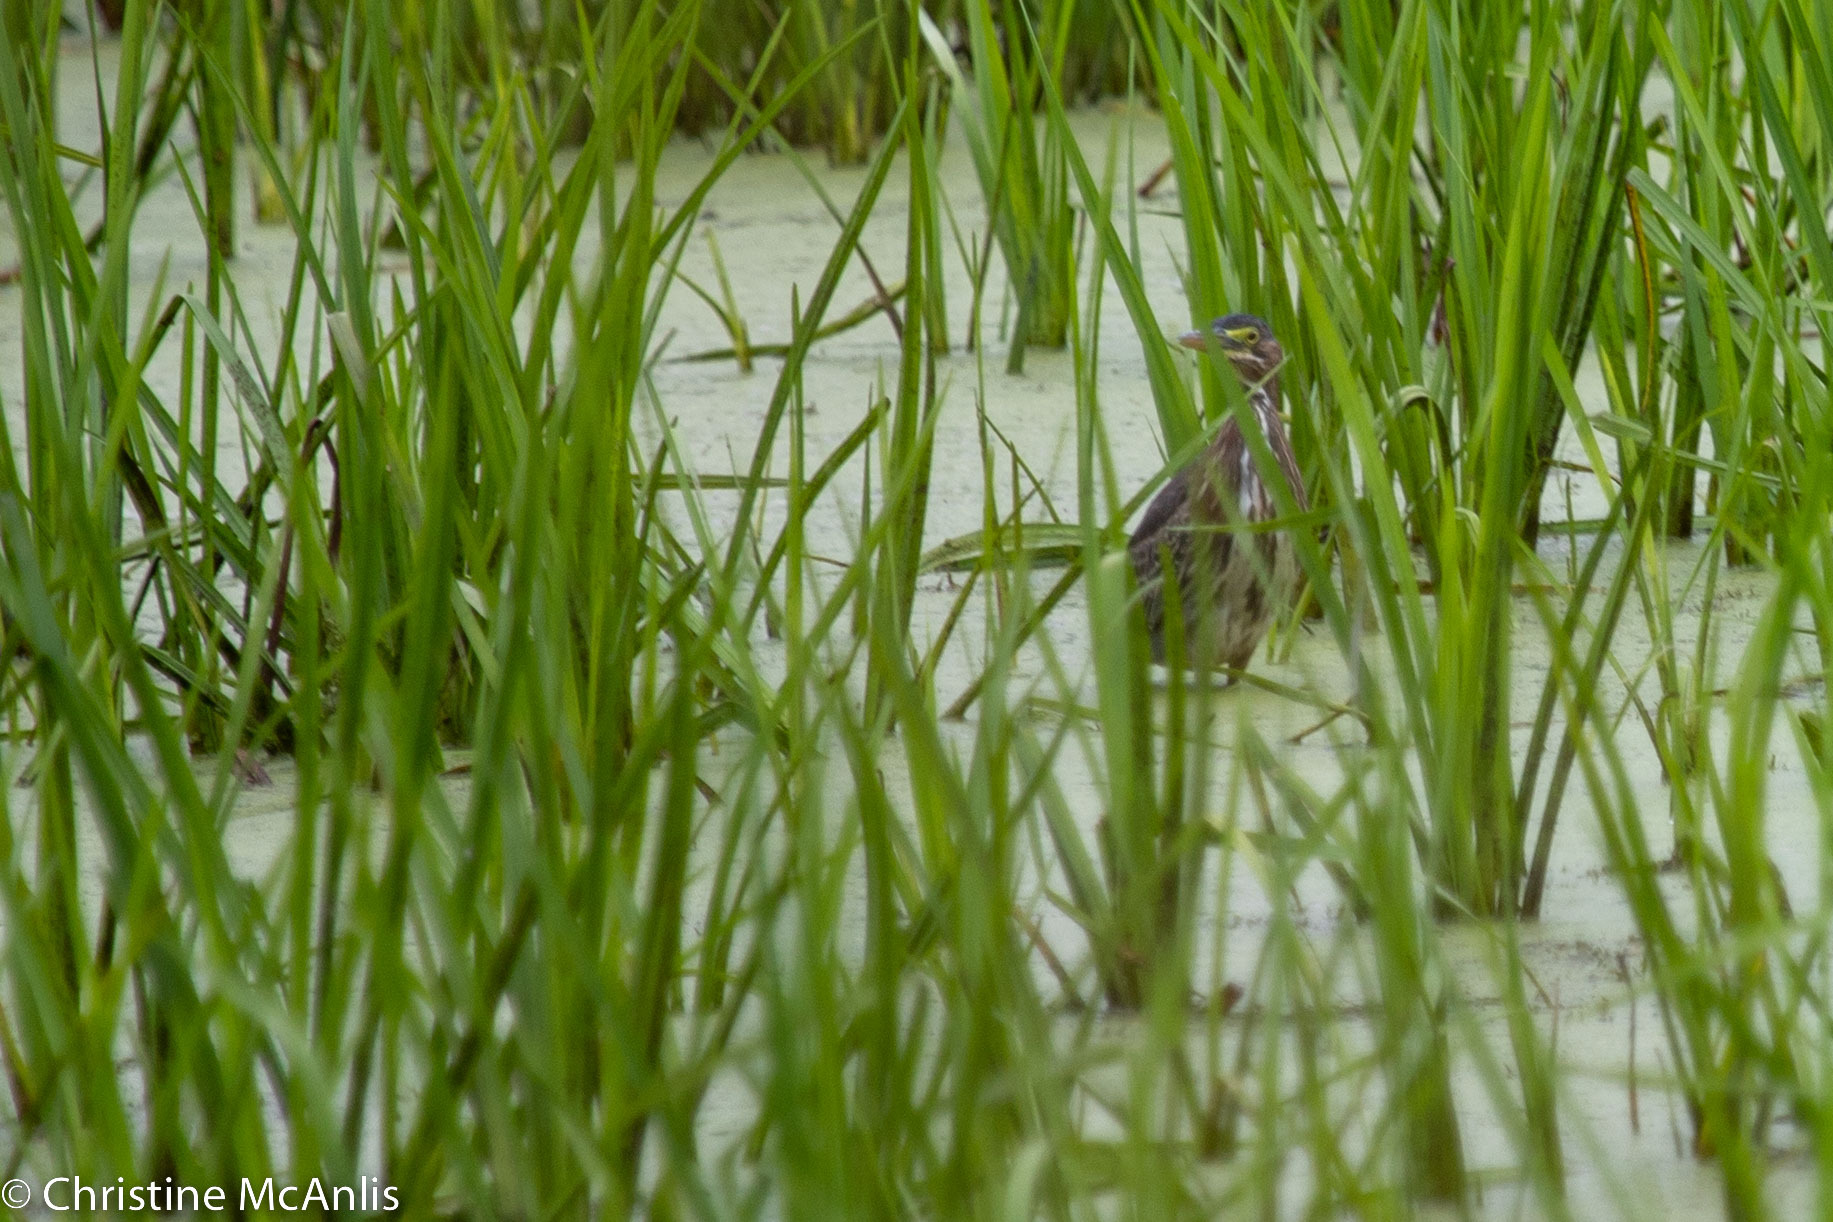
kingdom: Animalia
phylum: Chordata
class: Aves
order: Pelecaniformes
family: Ardeidae
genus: Butorides
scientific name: Butorides virescens
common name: Green heron
